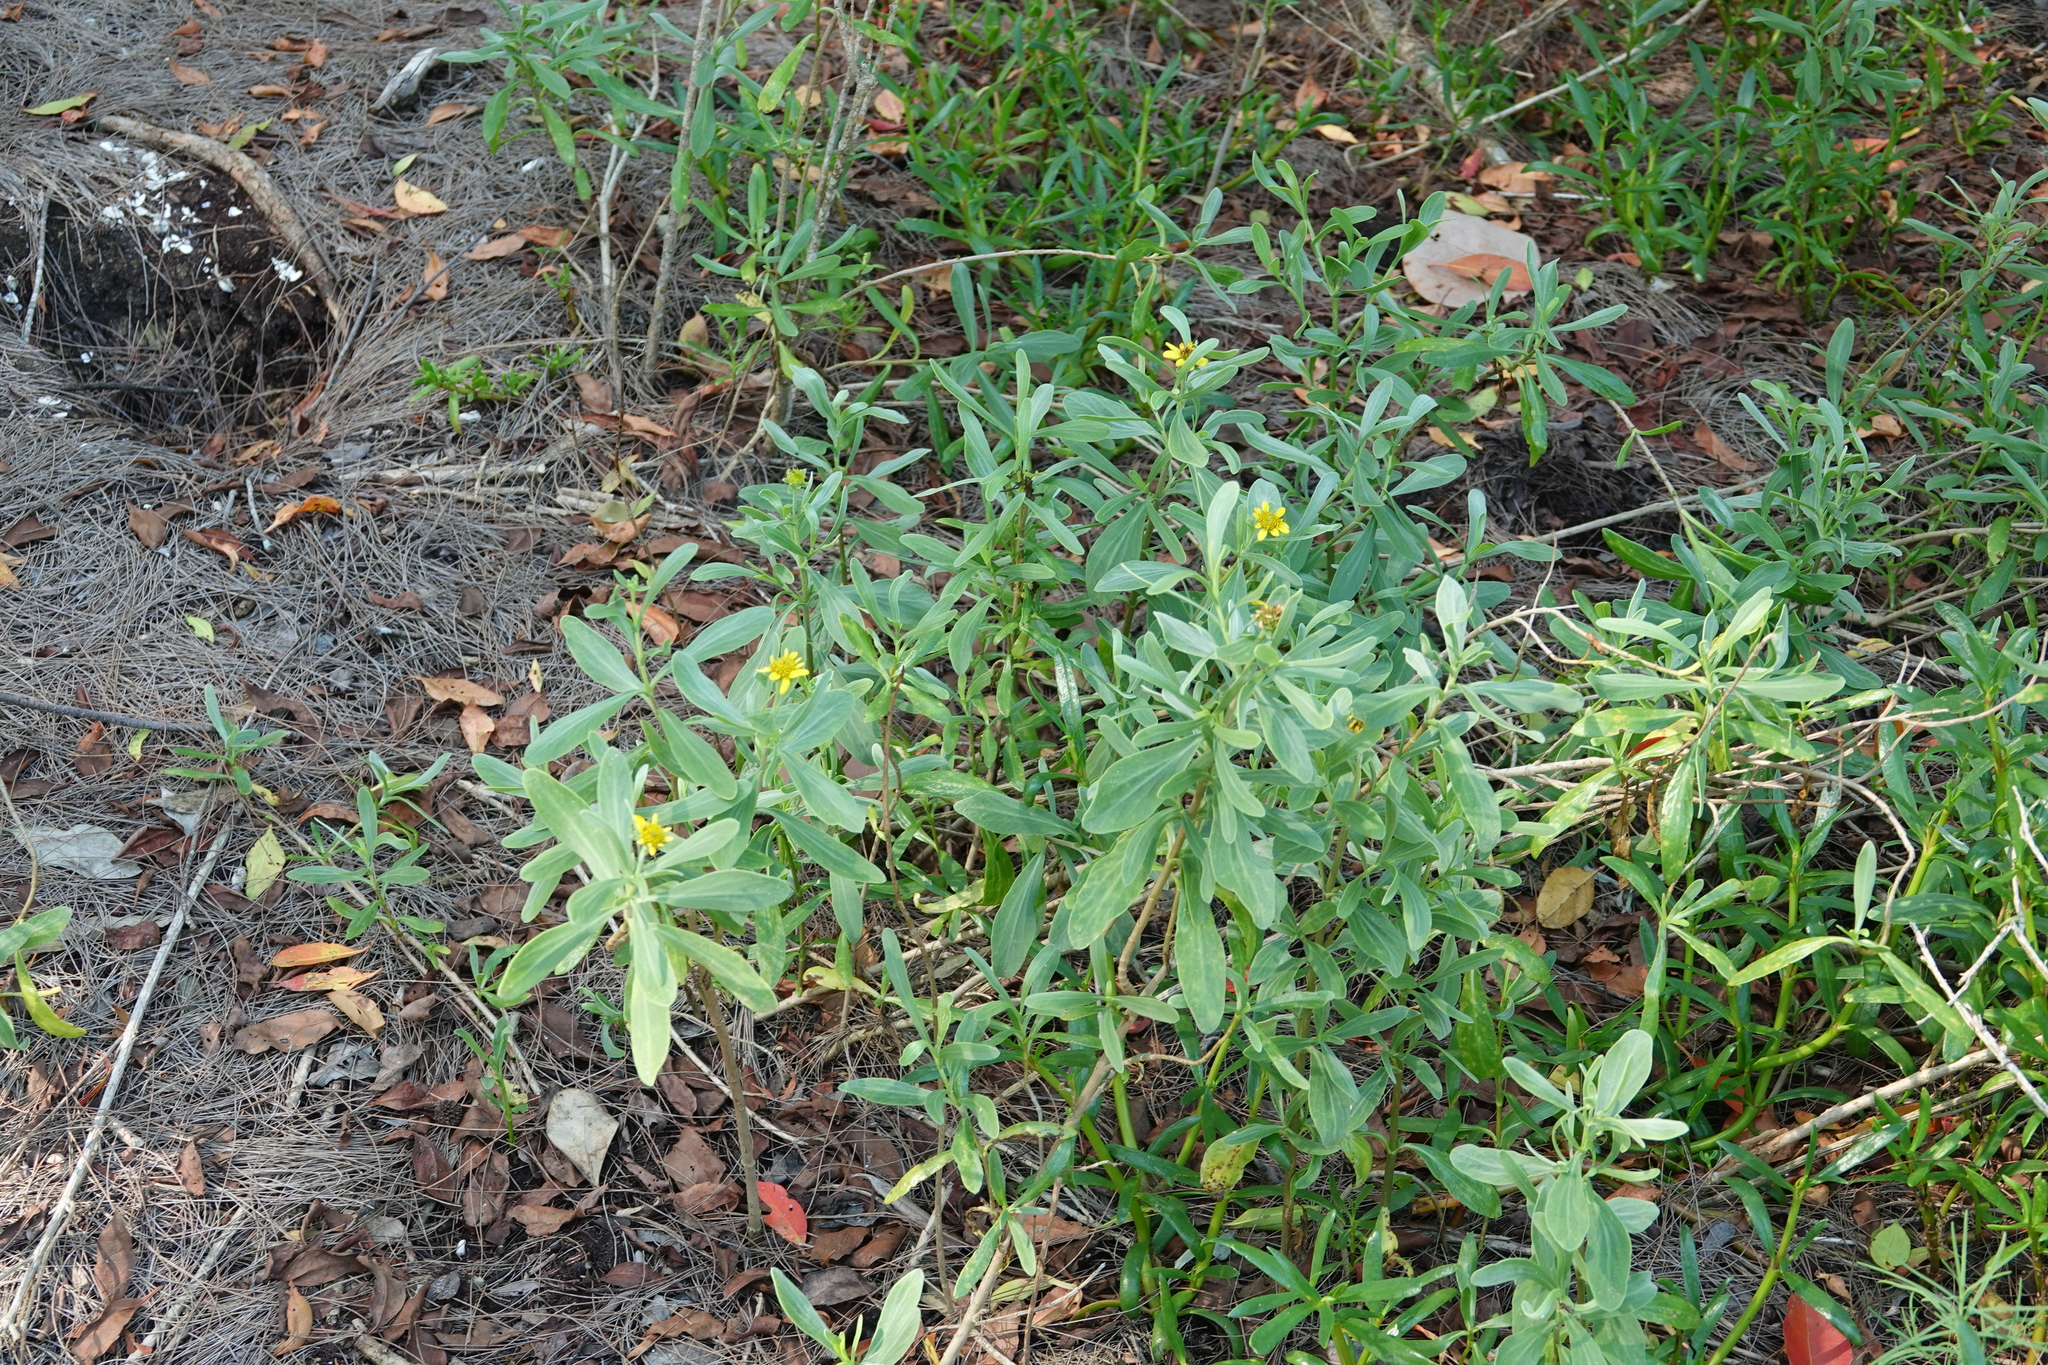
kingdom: Plantae
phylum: Tracheophyta
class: Magnoliopsida
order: Asterales
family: Asteraceae
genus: Borrichia
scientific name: Borrichia frutescens
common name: Sea oxeye
